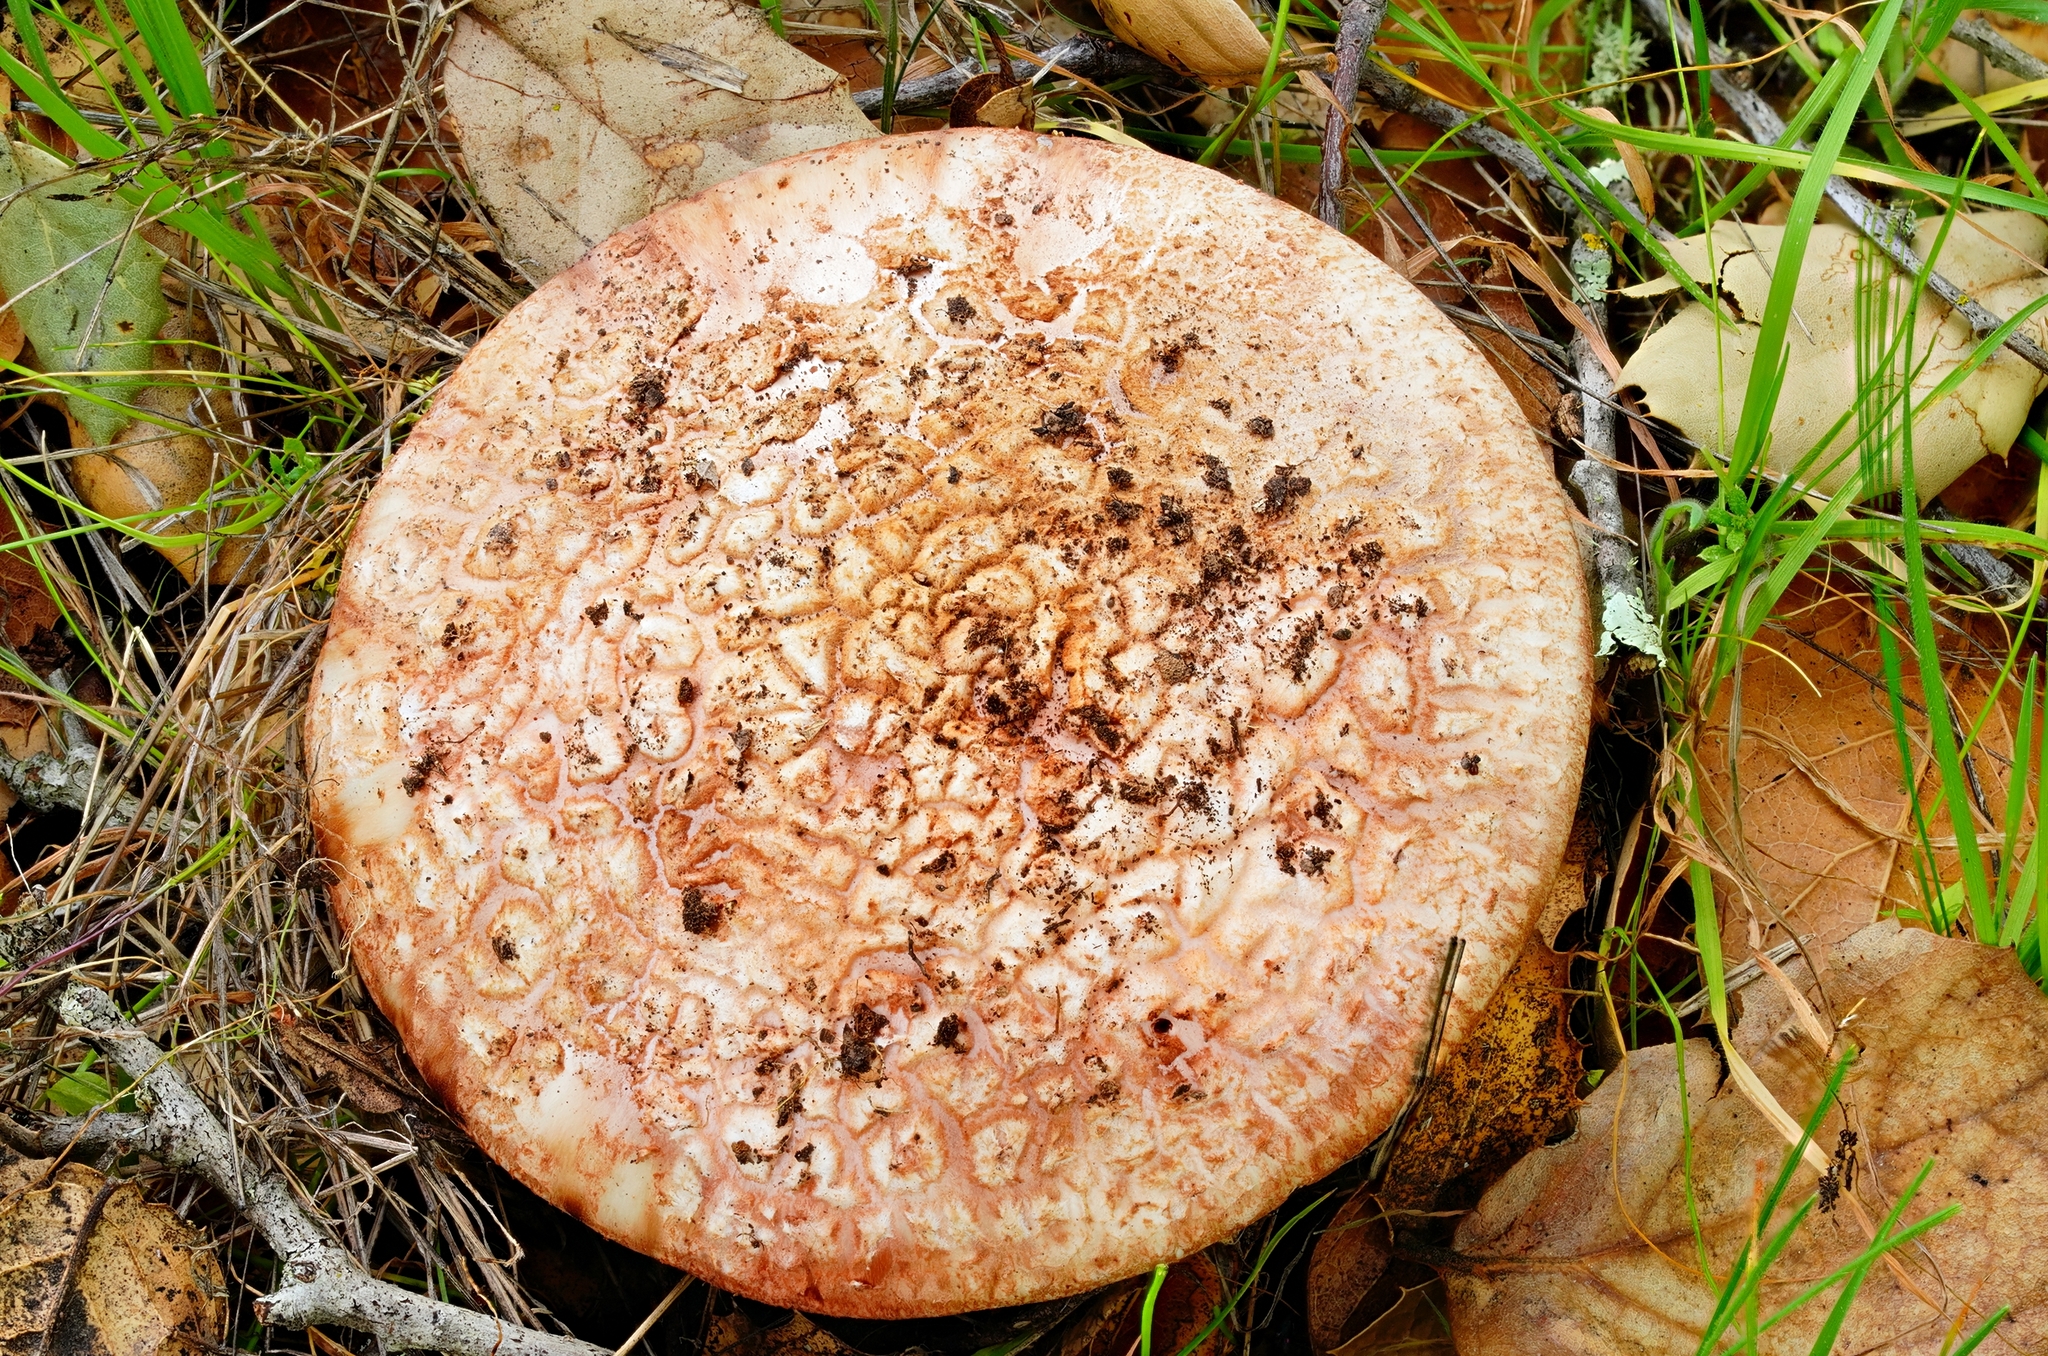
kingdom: Fungi
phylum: Basidiomycota
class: Agaricomycetes
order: Agaricales
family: Amanitaceae
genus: Amanita
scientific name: Amanita novinupta
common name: Blushing bride
